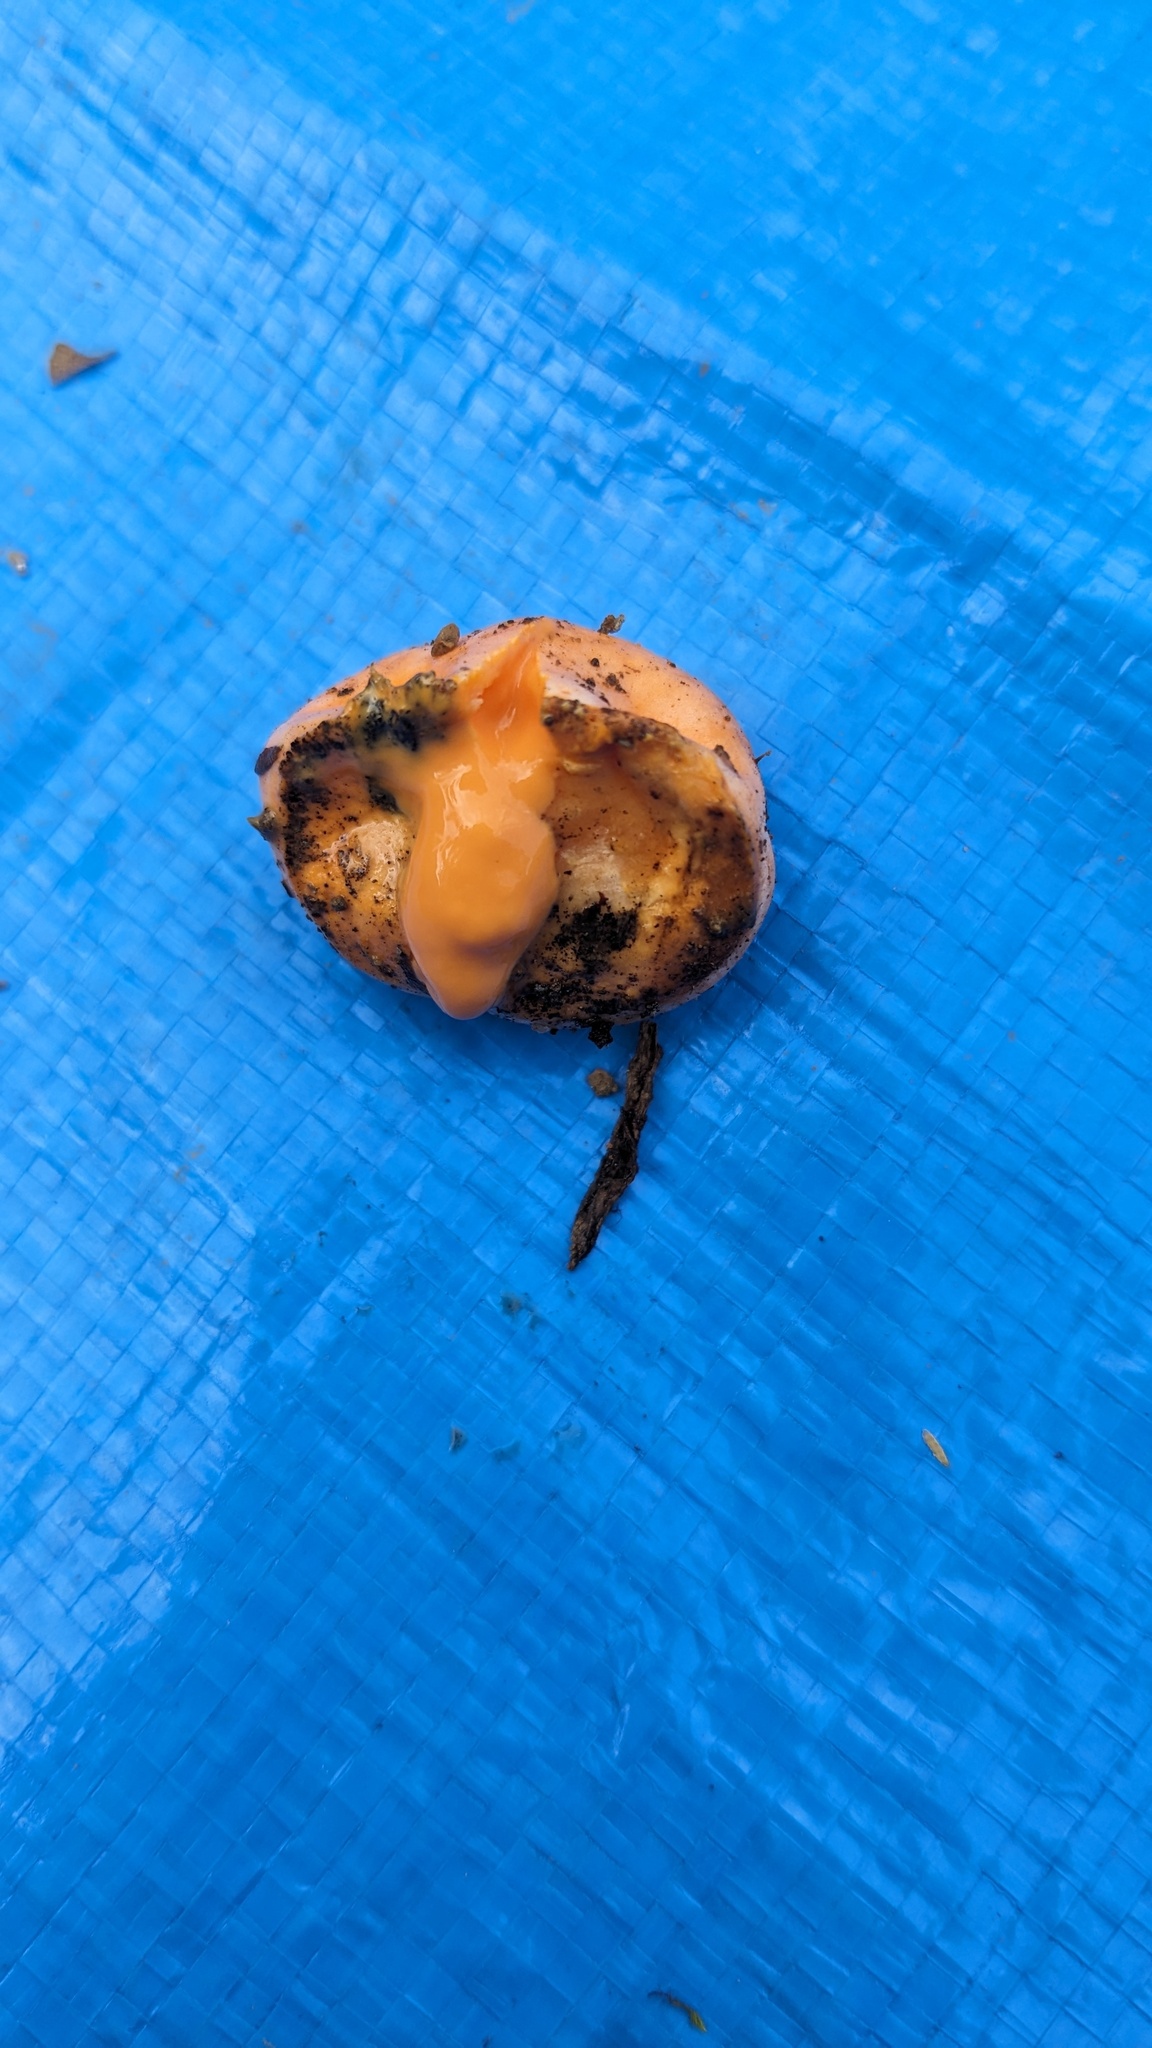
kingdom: Protozoa
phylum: Mycetozoa
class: Myxomycetes
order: Cribrariales
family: Tubiferaceae
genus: Lycogala
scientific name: Lycogala epidendrum
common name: Wolf's milk
